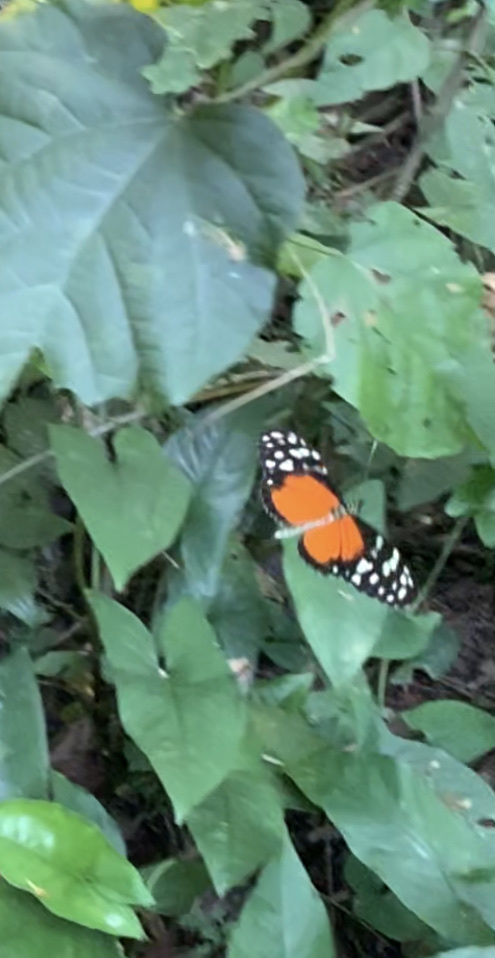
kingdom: Animalia
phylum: Arthropoda
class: Insecta
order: Lepidoptera
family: Nymphalidae
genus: Heliconius
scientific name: Heliconius hecale
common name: Tiger longwing
